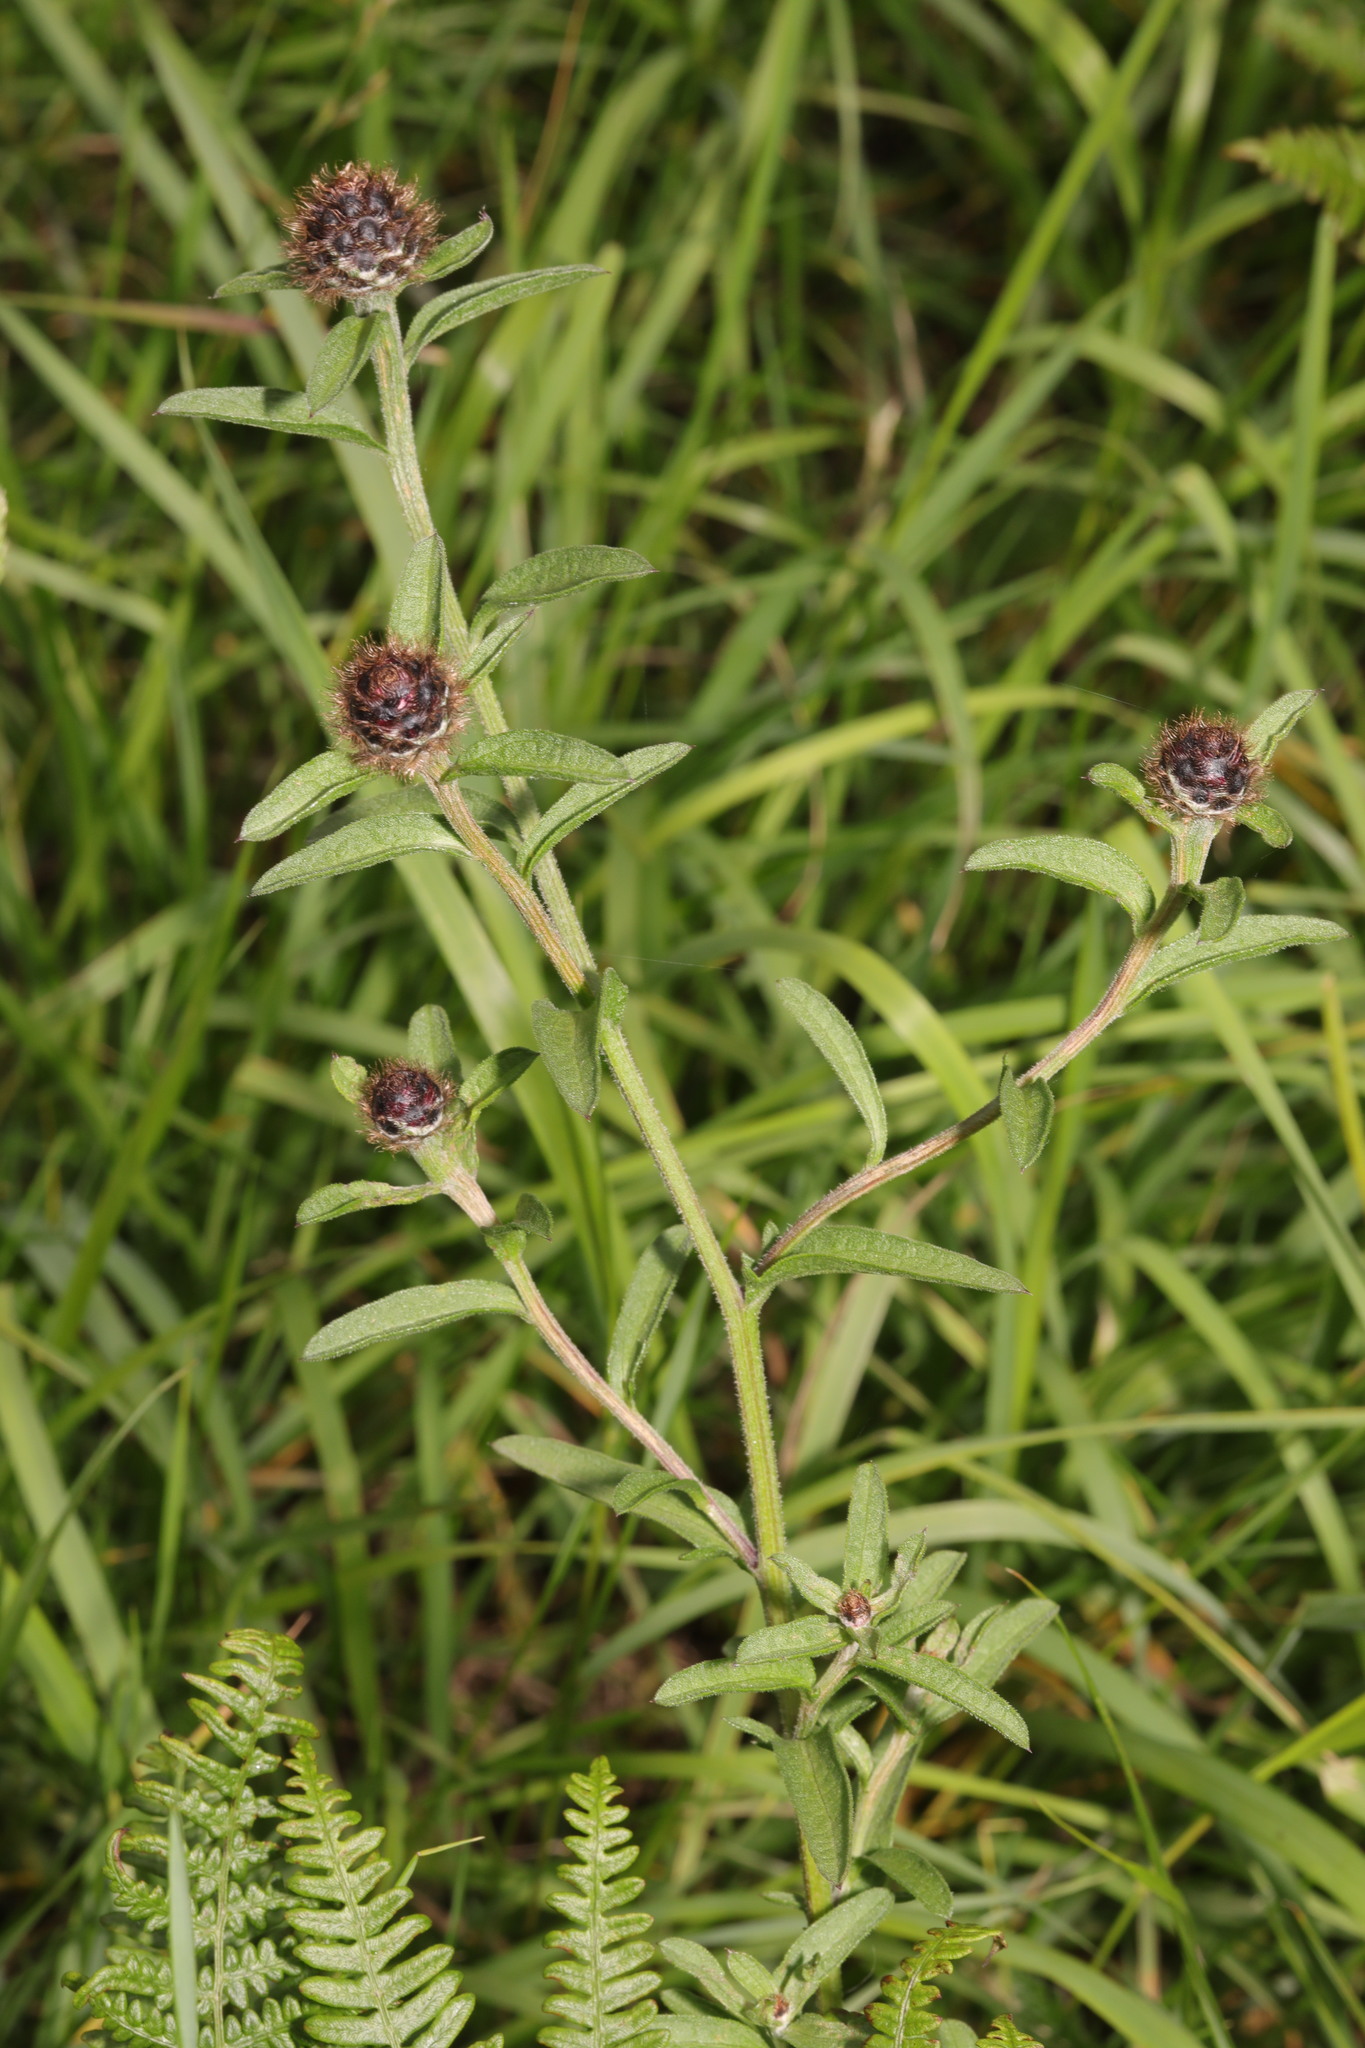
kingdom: Plantae
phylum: Tracheophyta
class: Magnoliopsida
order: Asterales
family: Asteraceae
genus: Centaurea
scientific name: Centaurea nigra
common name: Lesser knapweed
